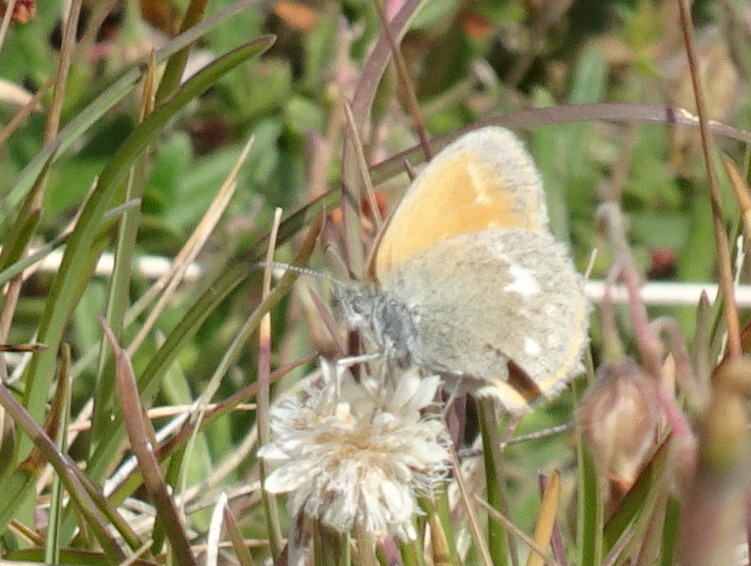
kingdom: Animalia
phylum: Arthropoda
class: Insecta
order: Lepidoptera
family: Nymphalidae
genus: Coenonympha
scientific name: Coenonympha iphis
